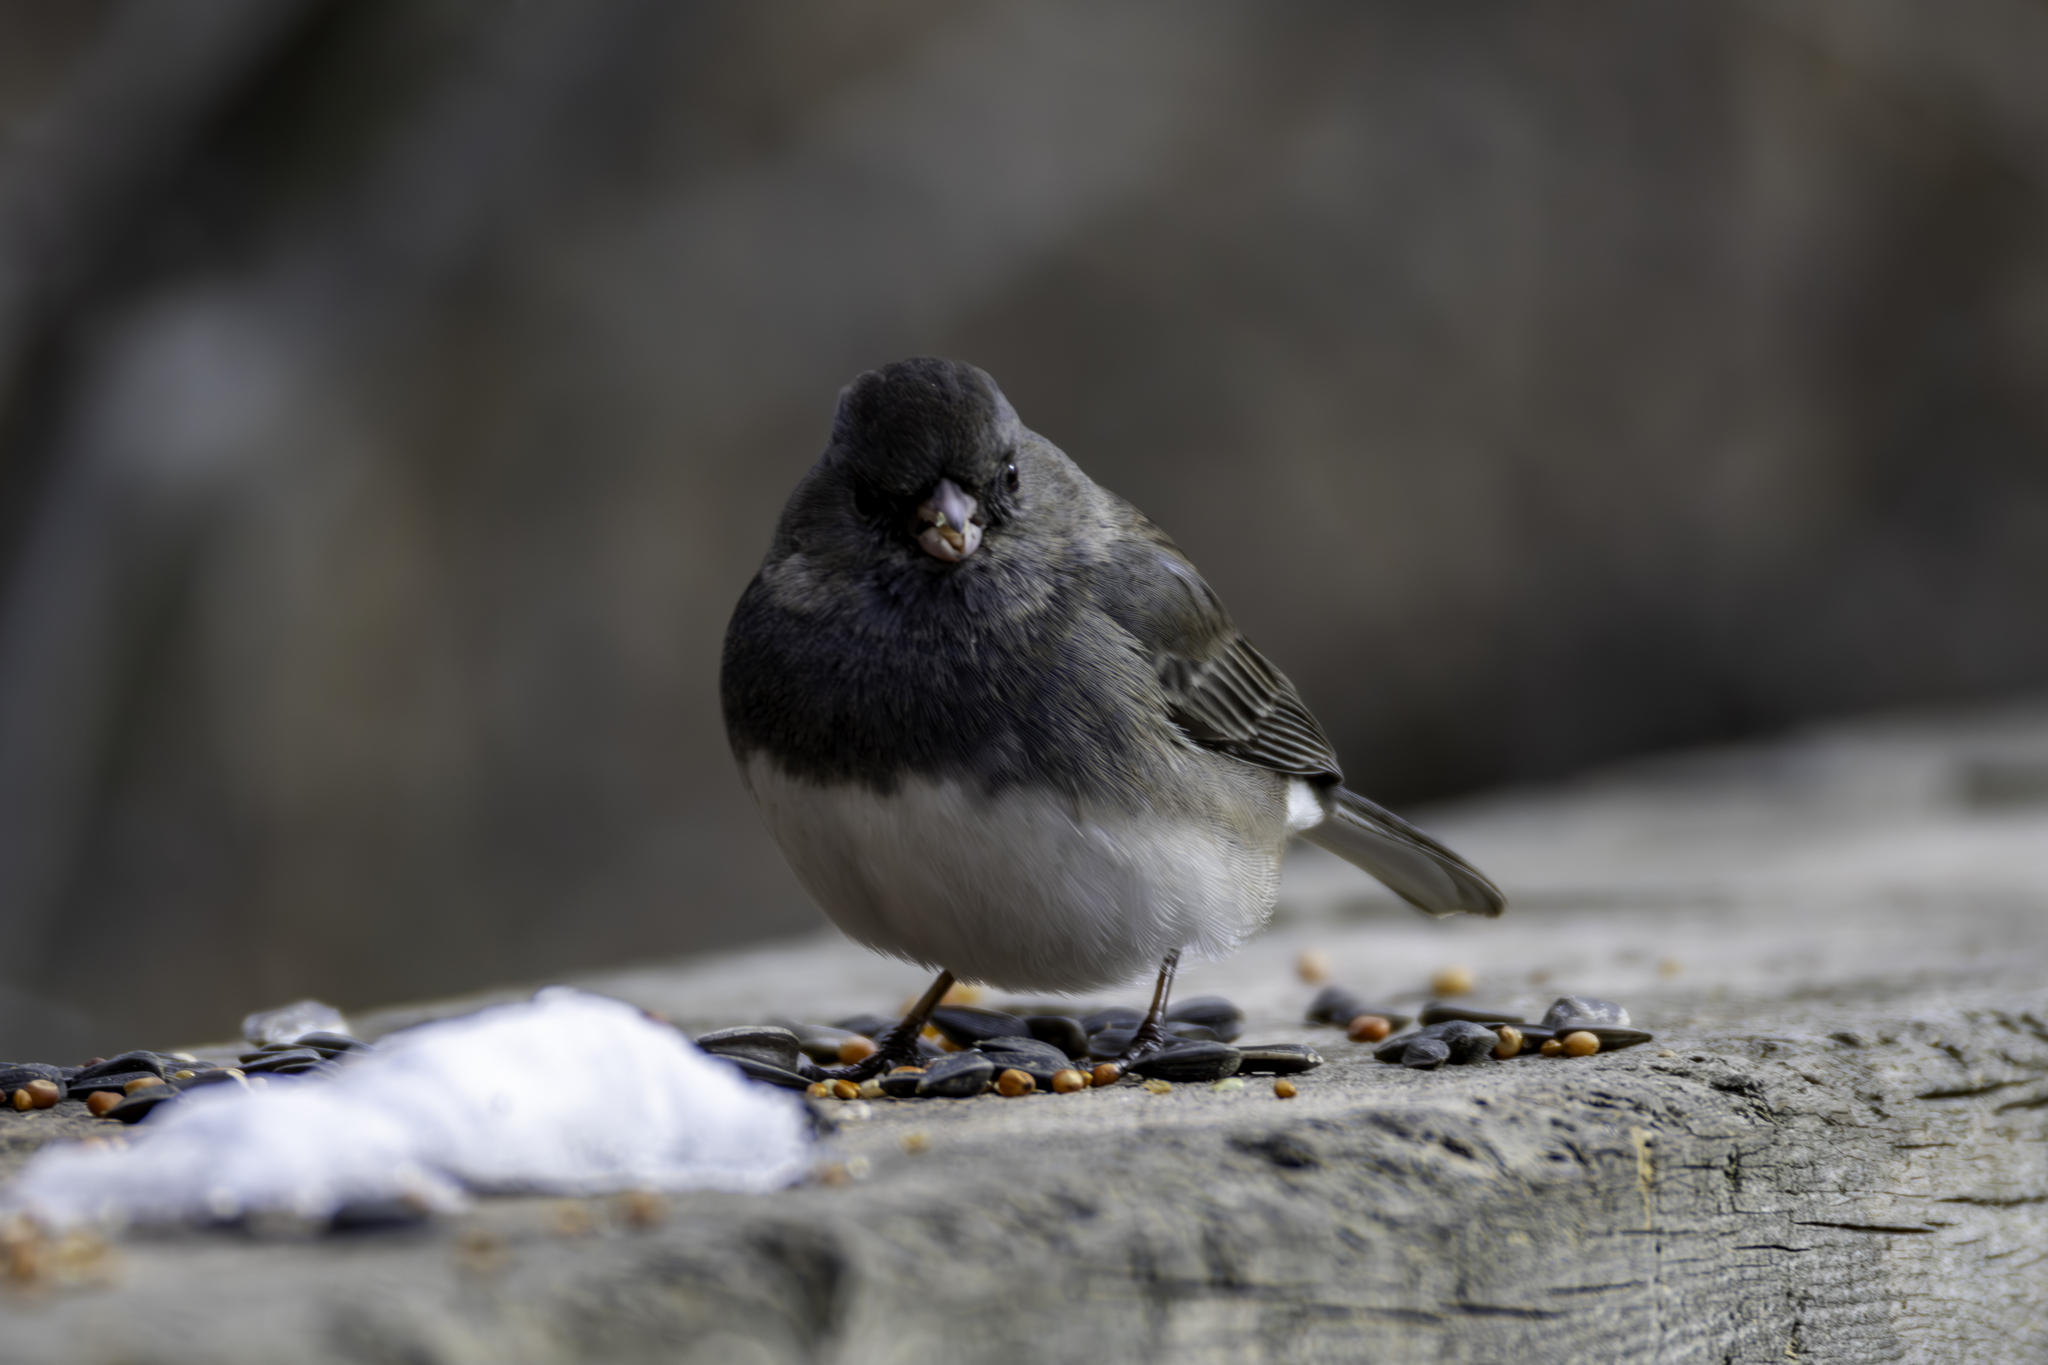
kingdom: Animalia
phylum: Chordata
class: Aves
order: Passeriformes
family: Passerellidae
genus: Junco
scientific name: Junco hyemalis
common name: Dark-eyed junco
